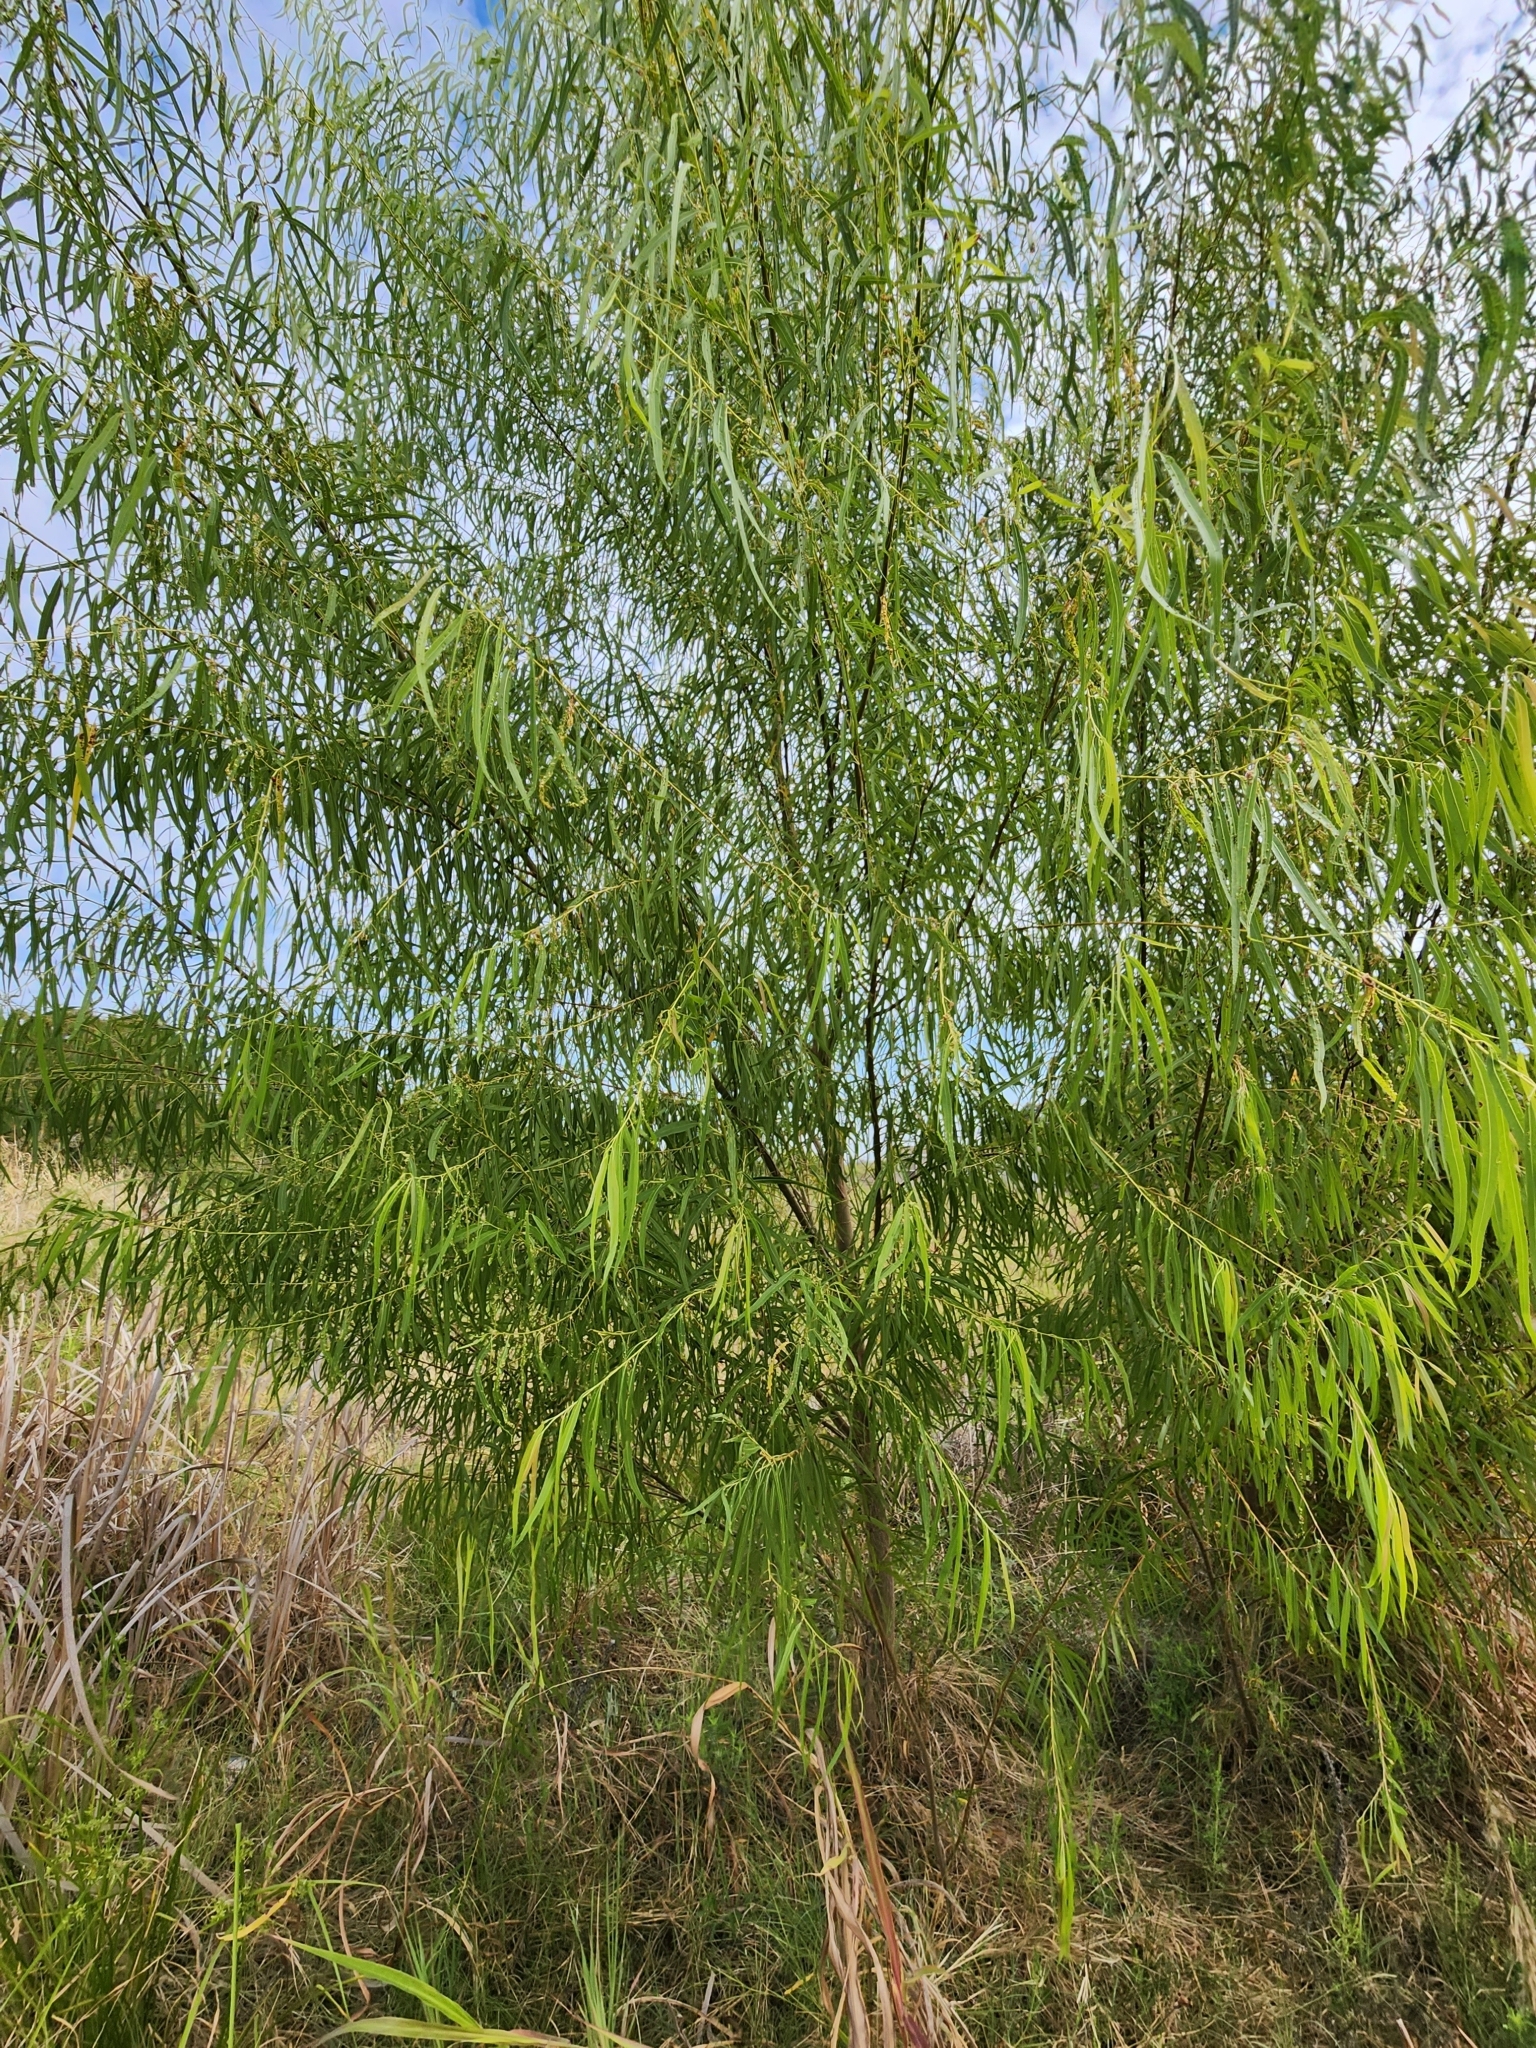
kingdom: Plantae
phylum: Tracheophyta
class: Magnoliopsida
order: Malpighiales
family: Salicaceae
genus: Salix
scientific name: Salix nigra
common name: Black willow
